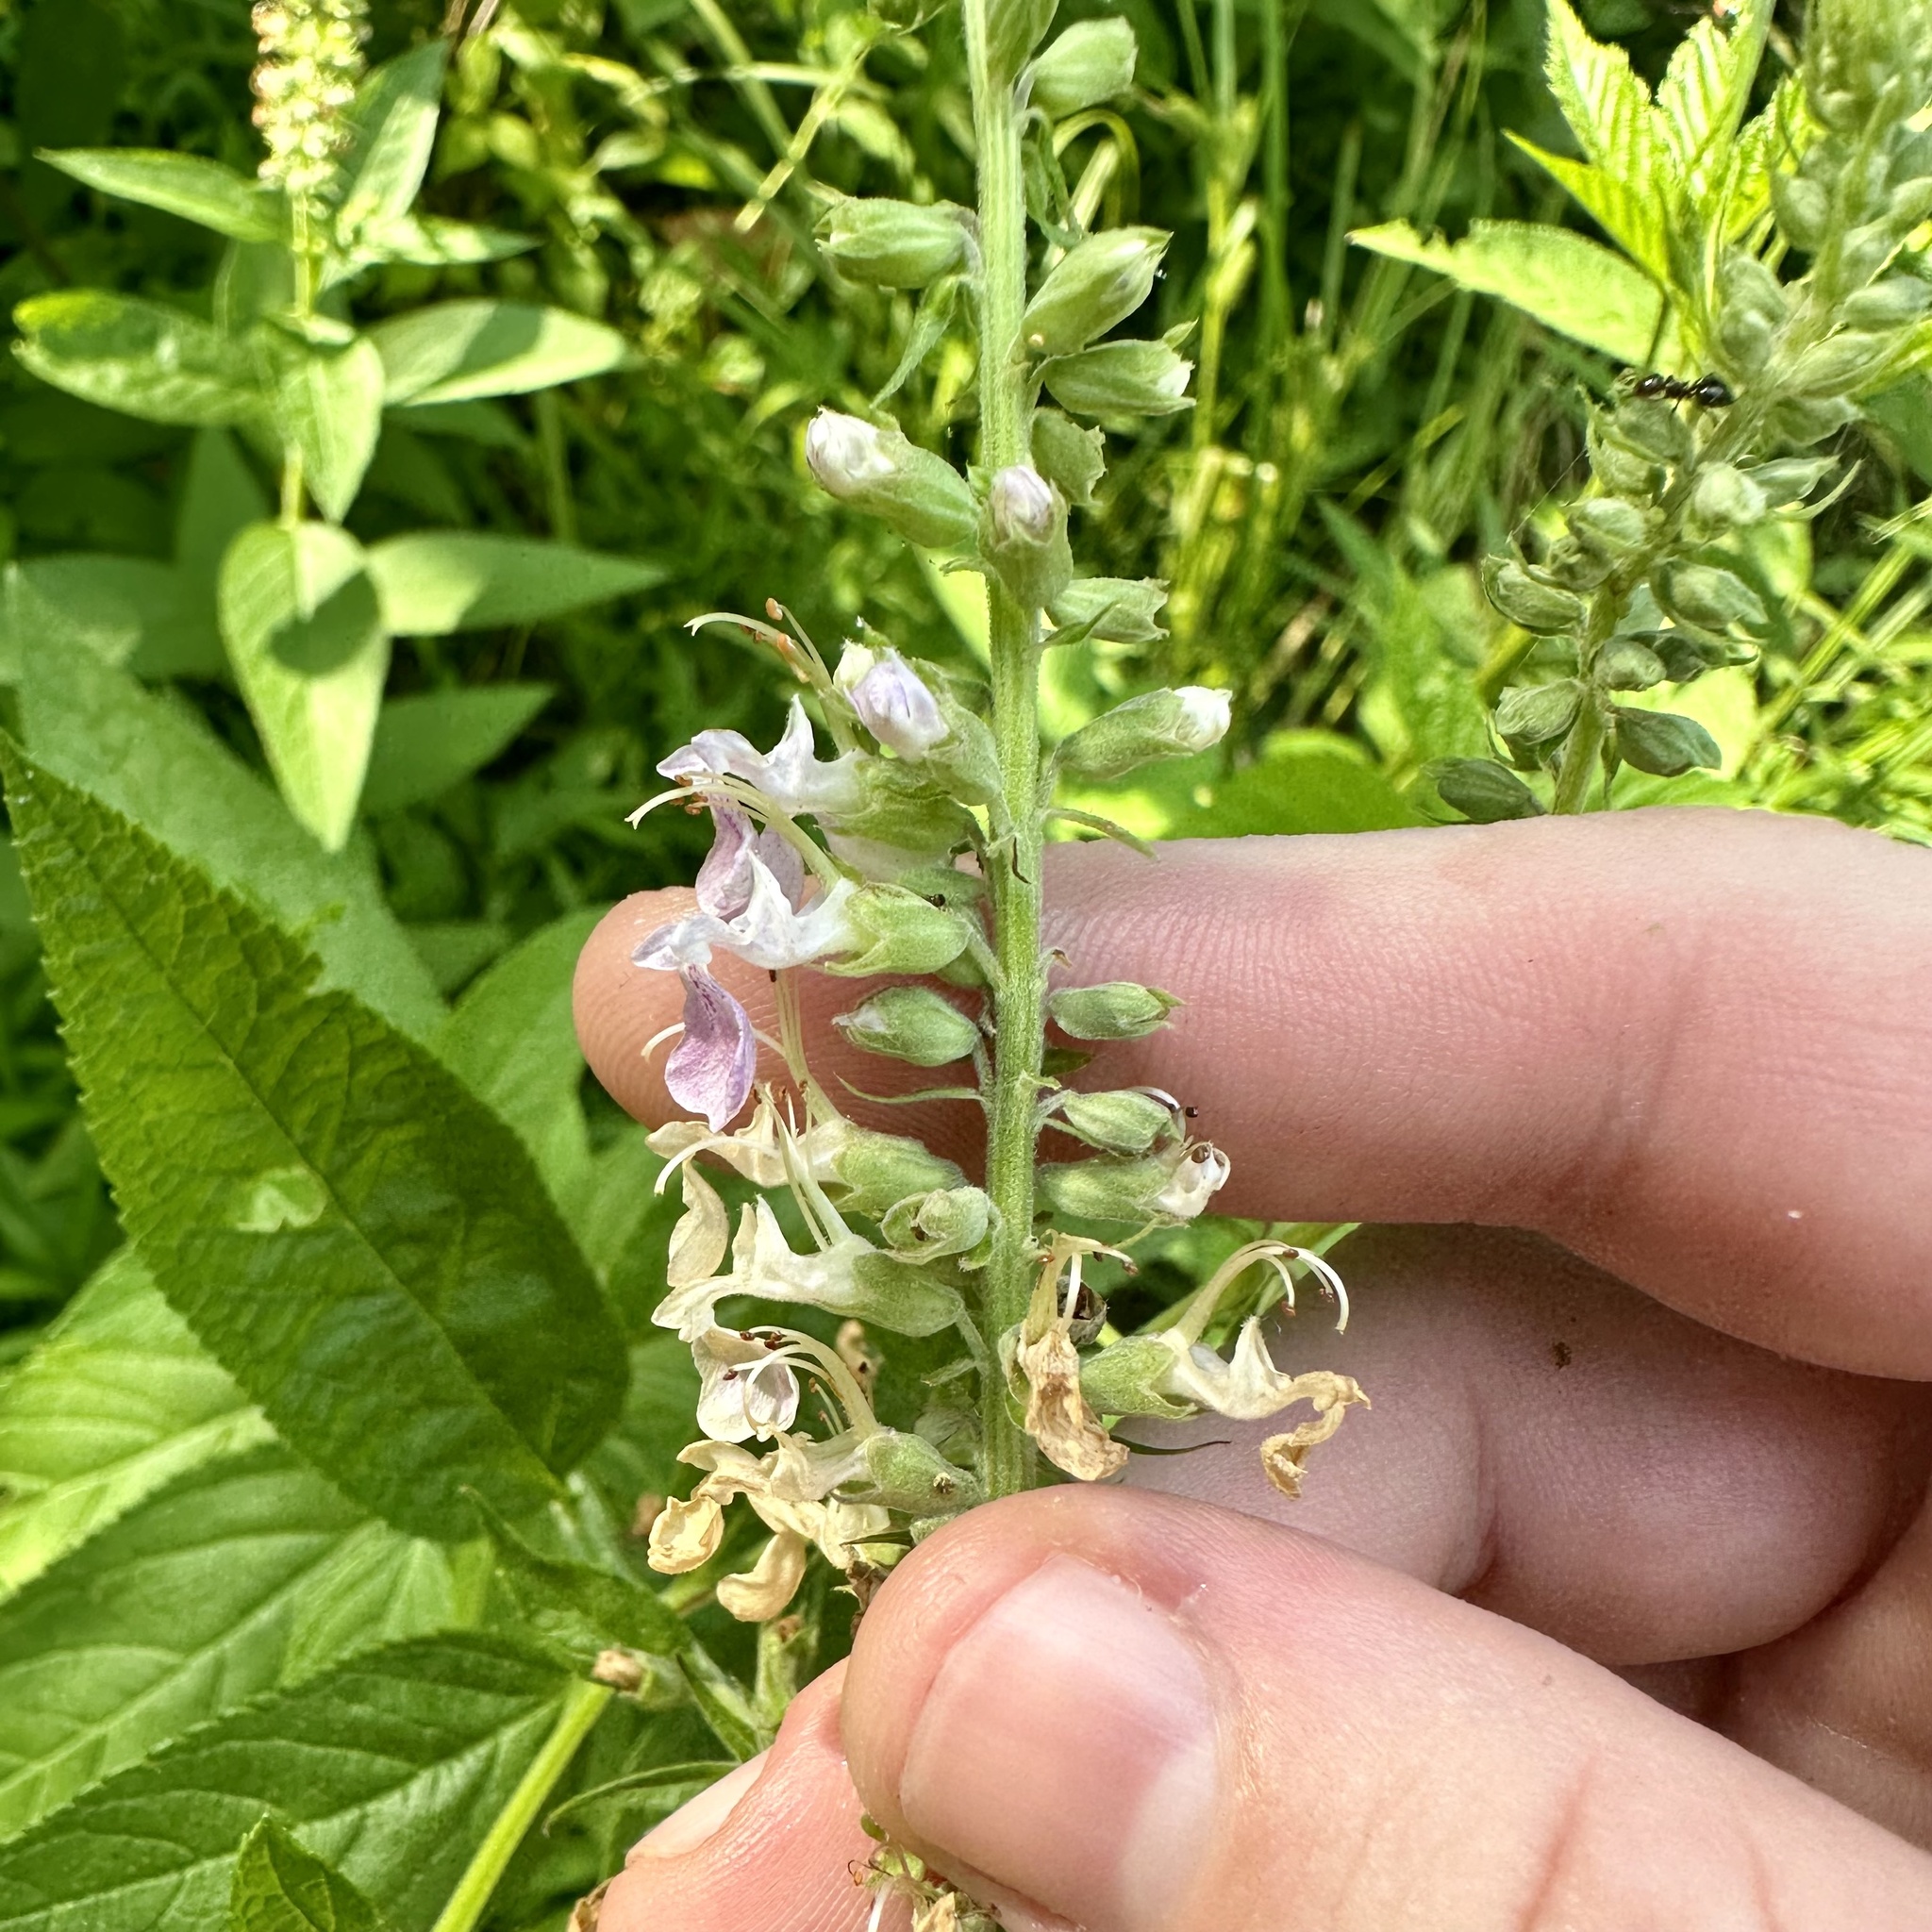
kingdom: Plantae
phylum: Tracheophyta
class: Magnoliopsida
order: Lamiales
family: Lamiaceae
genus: Teucrium
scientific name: Teucrium canadense
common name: American germander
